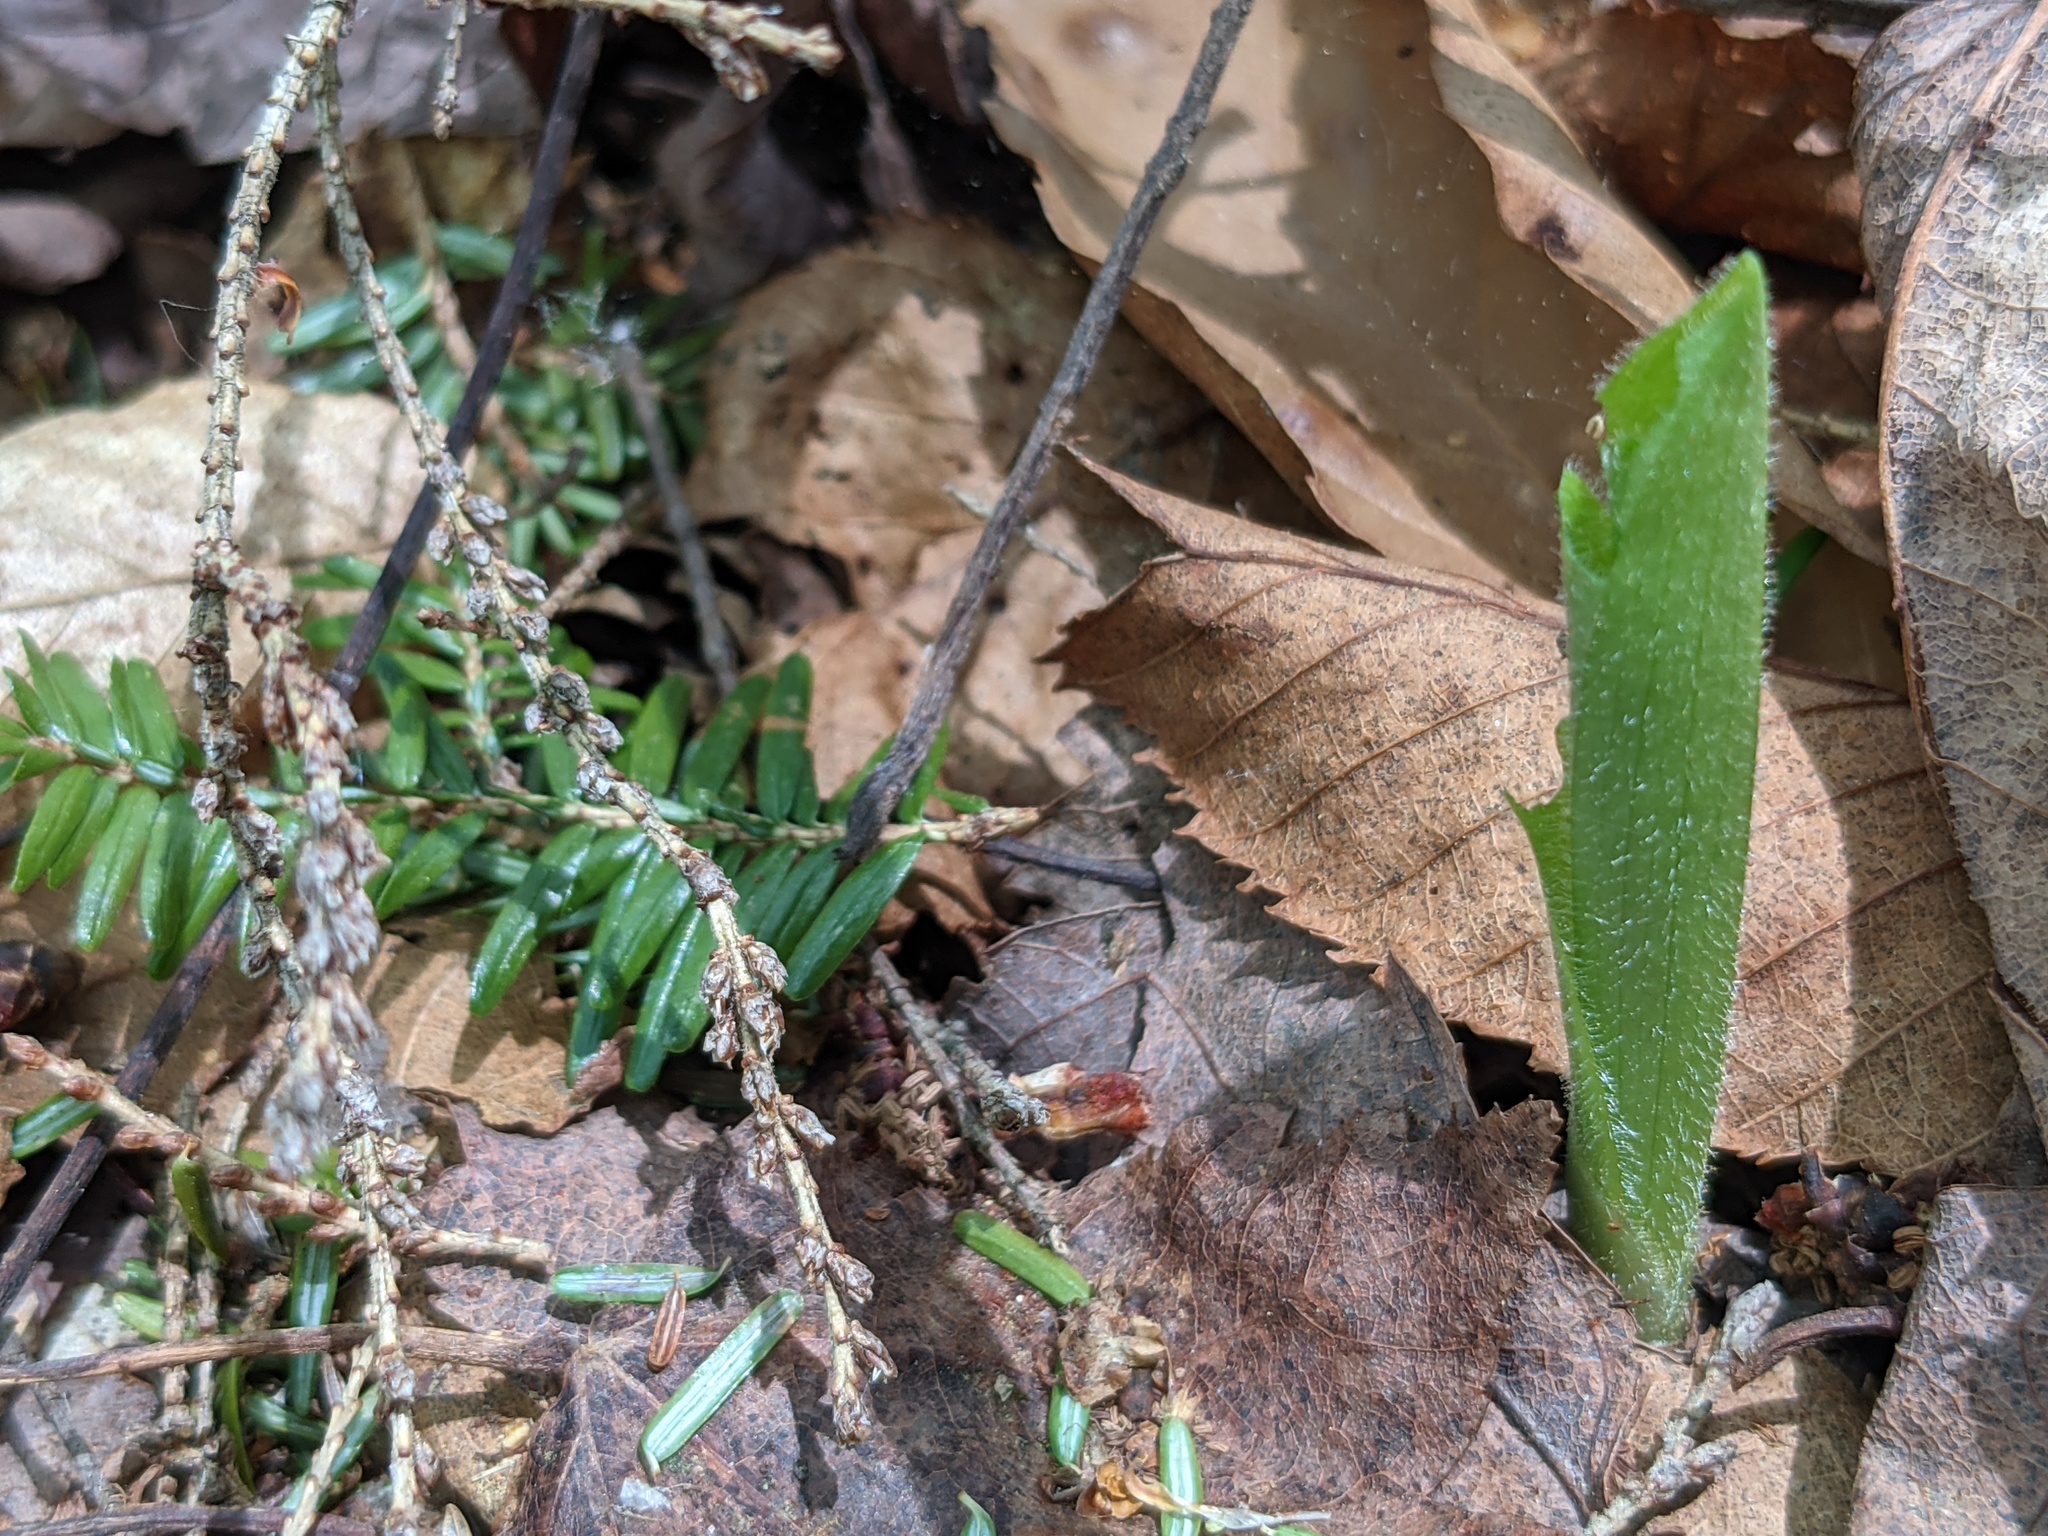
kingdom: Plantae
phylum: Tracheophyta
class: Liliopsida
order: Asparagales
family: Orchidaceae
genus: Cypripedium
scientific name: Cypripedium acaule
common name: Pink lady's-slipper
